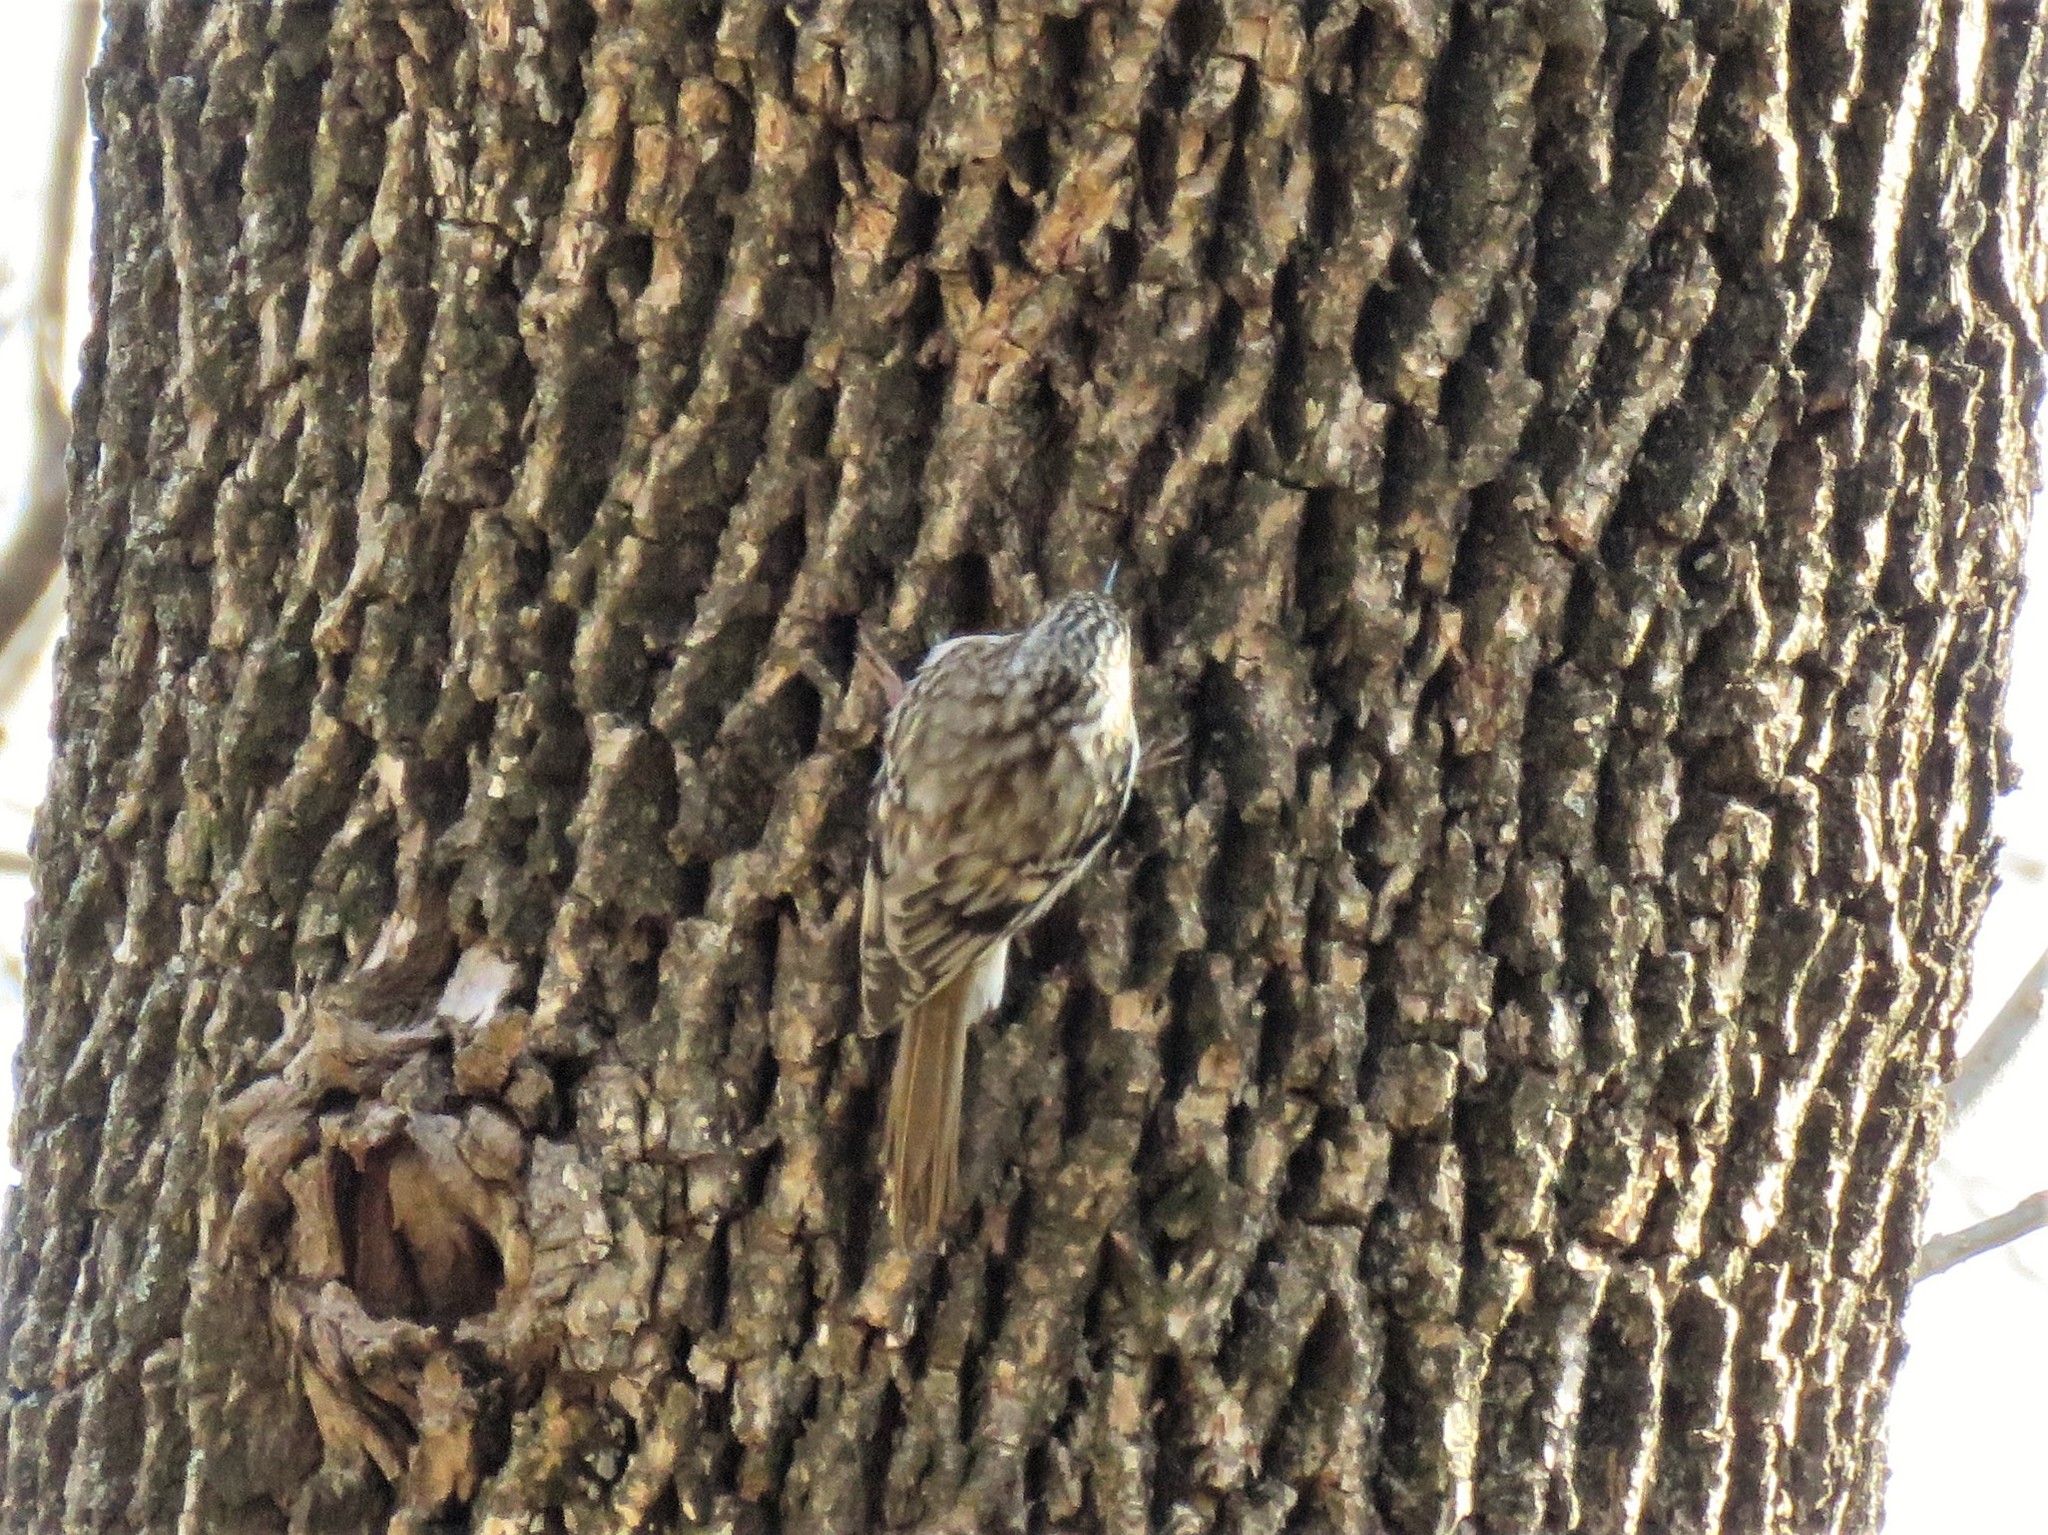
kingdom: Animalia
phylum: Chordata
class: Aves
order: Passeriformes
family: Certhiidae
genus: Certhia
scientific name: Certhia americana
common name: Brown creeper
